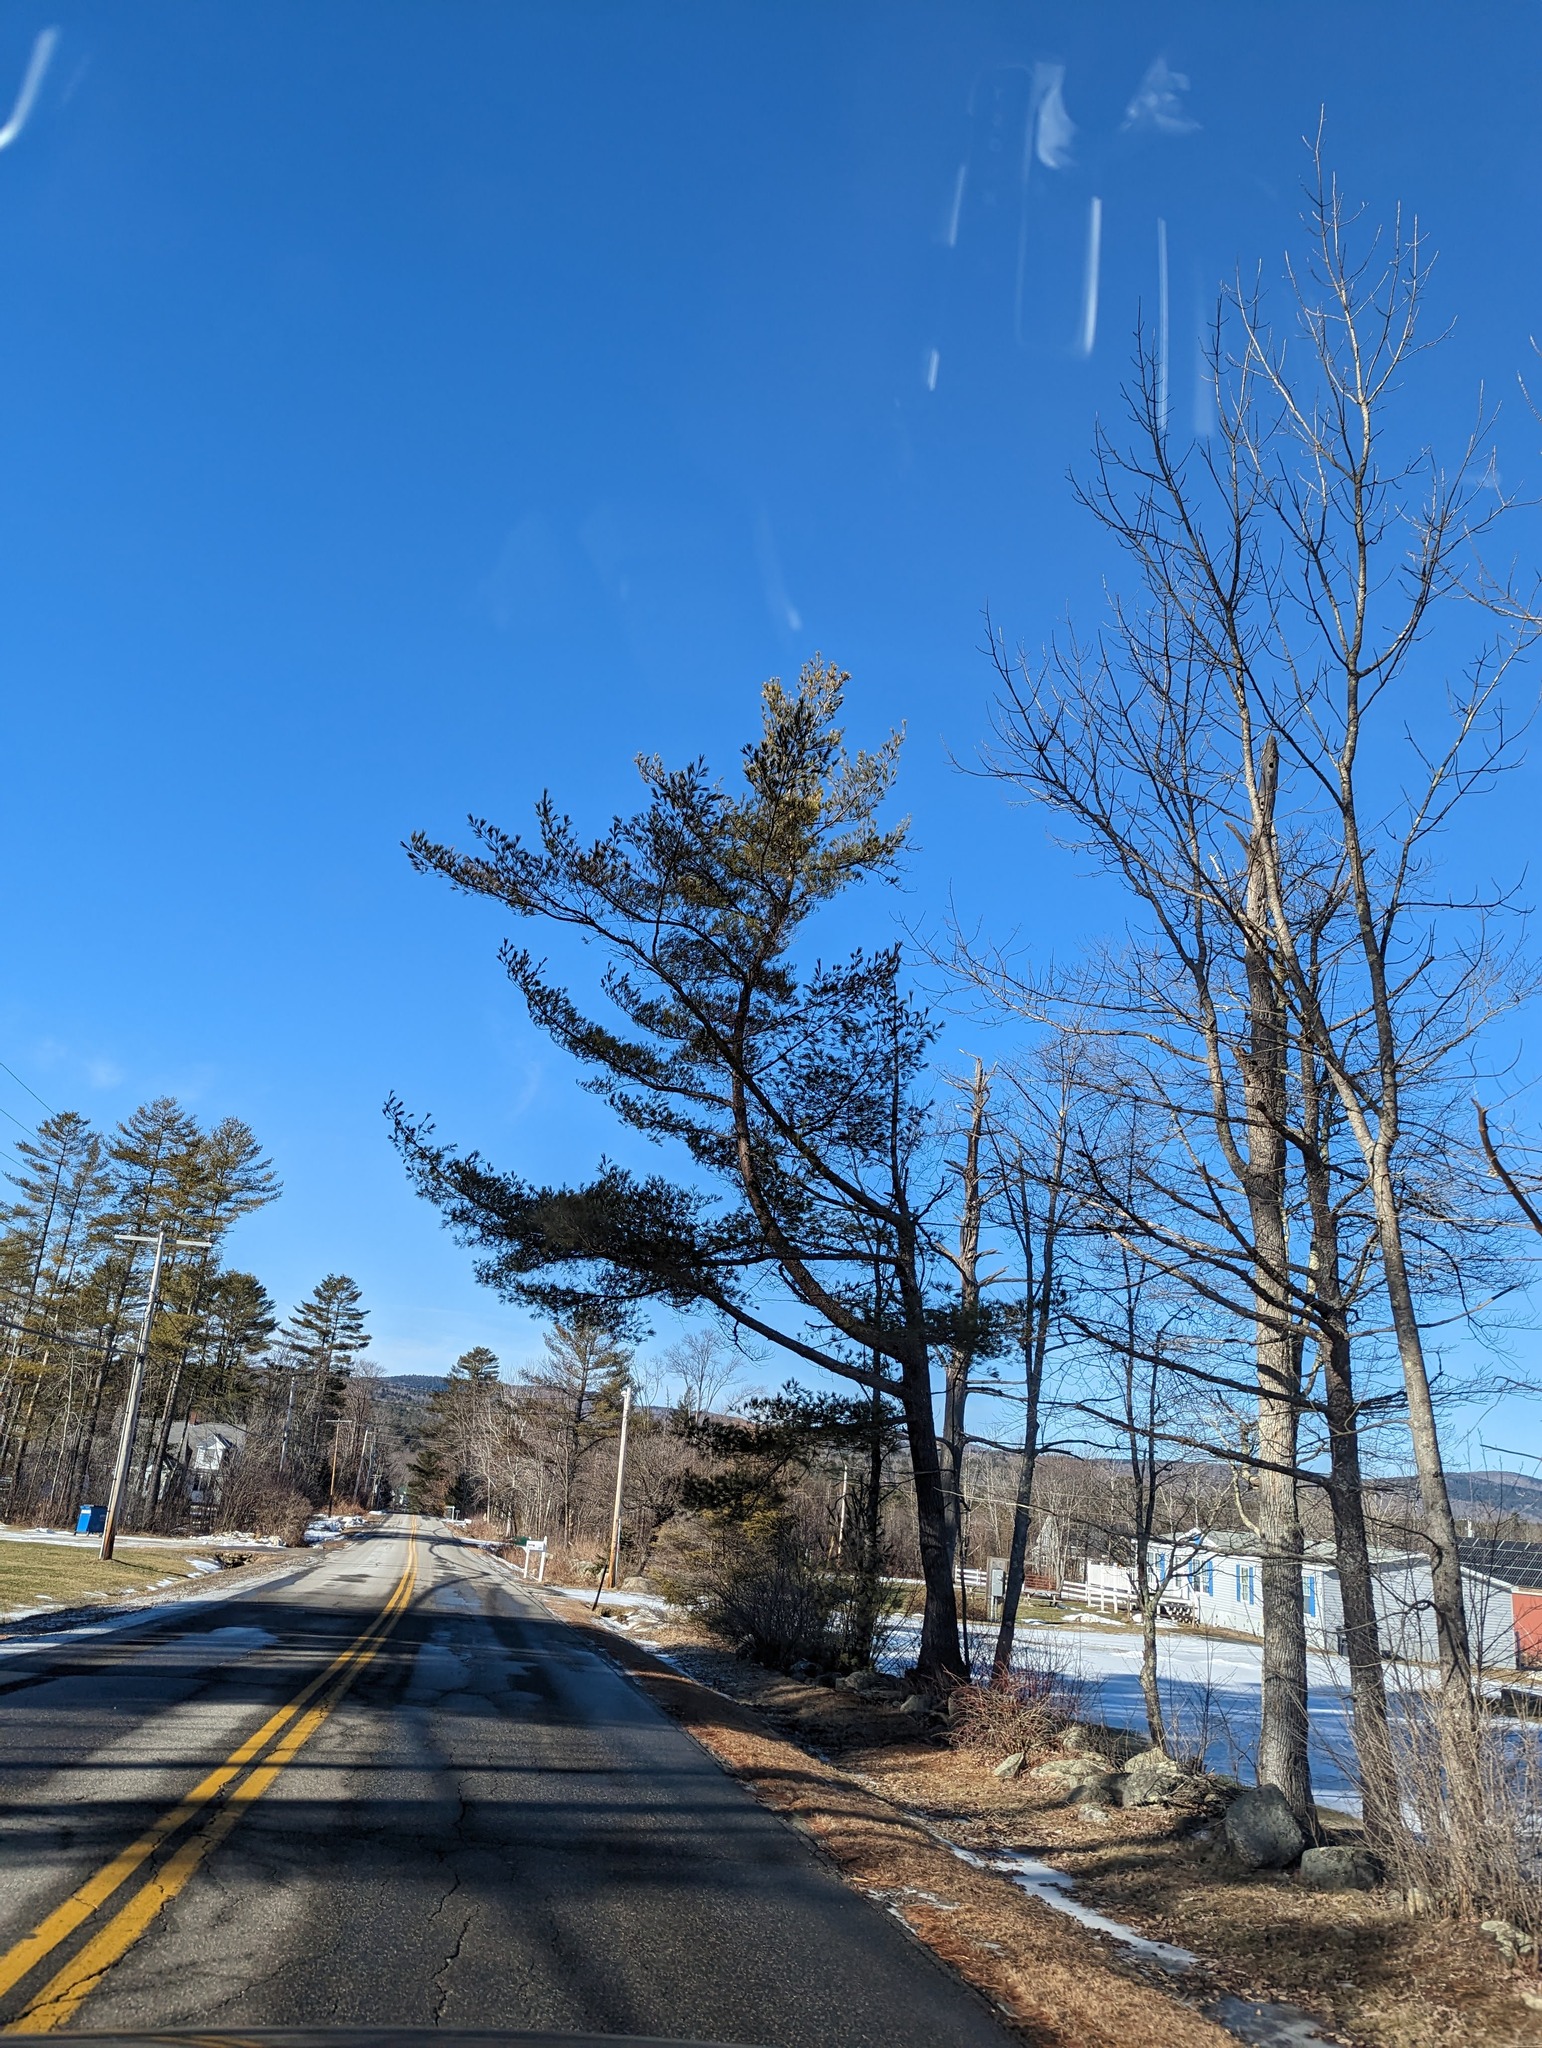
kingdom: Plantae
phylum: Tracheophyta
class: Pinopsida
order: Pinales
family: Pinaceae
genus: Pinus
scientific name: Pinus strobus
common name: Weymouth pine
